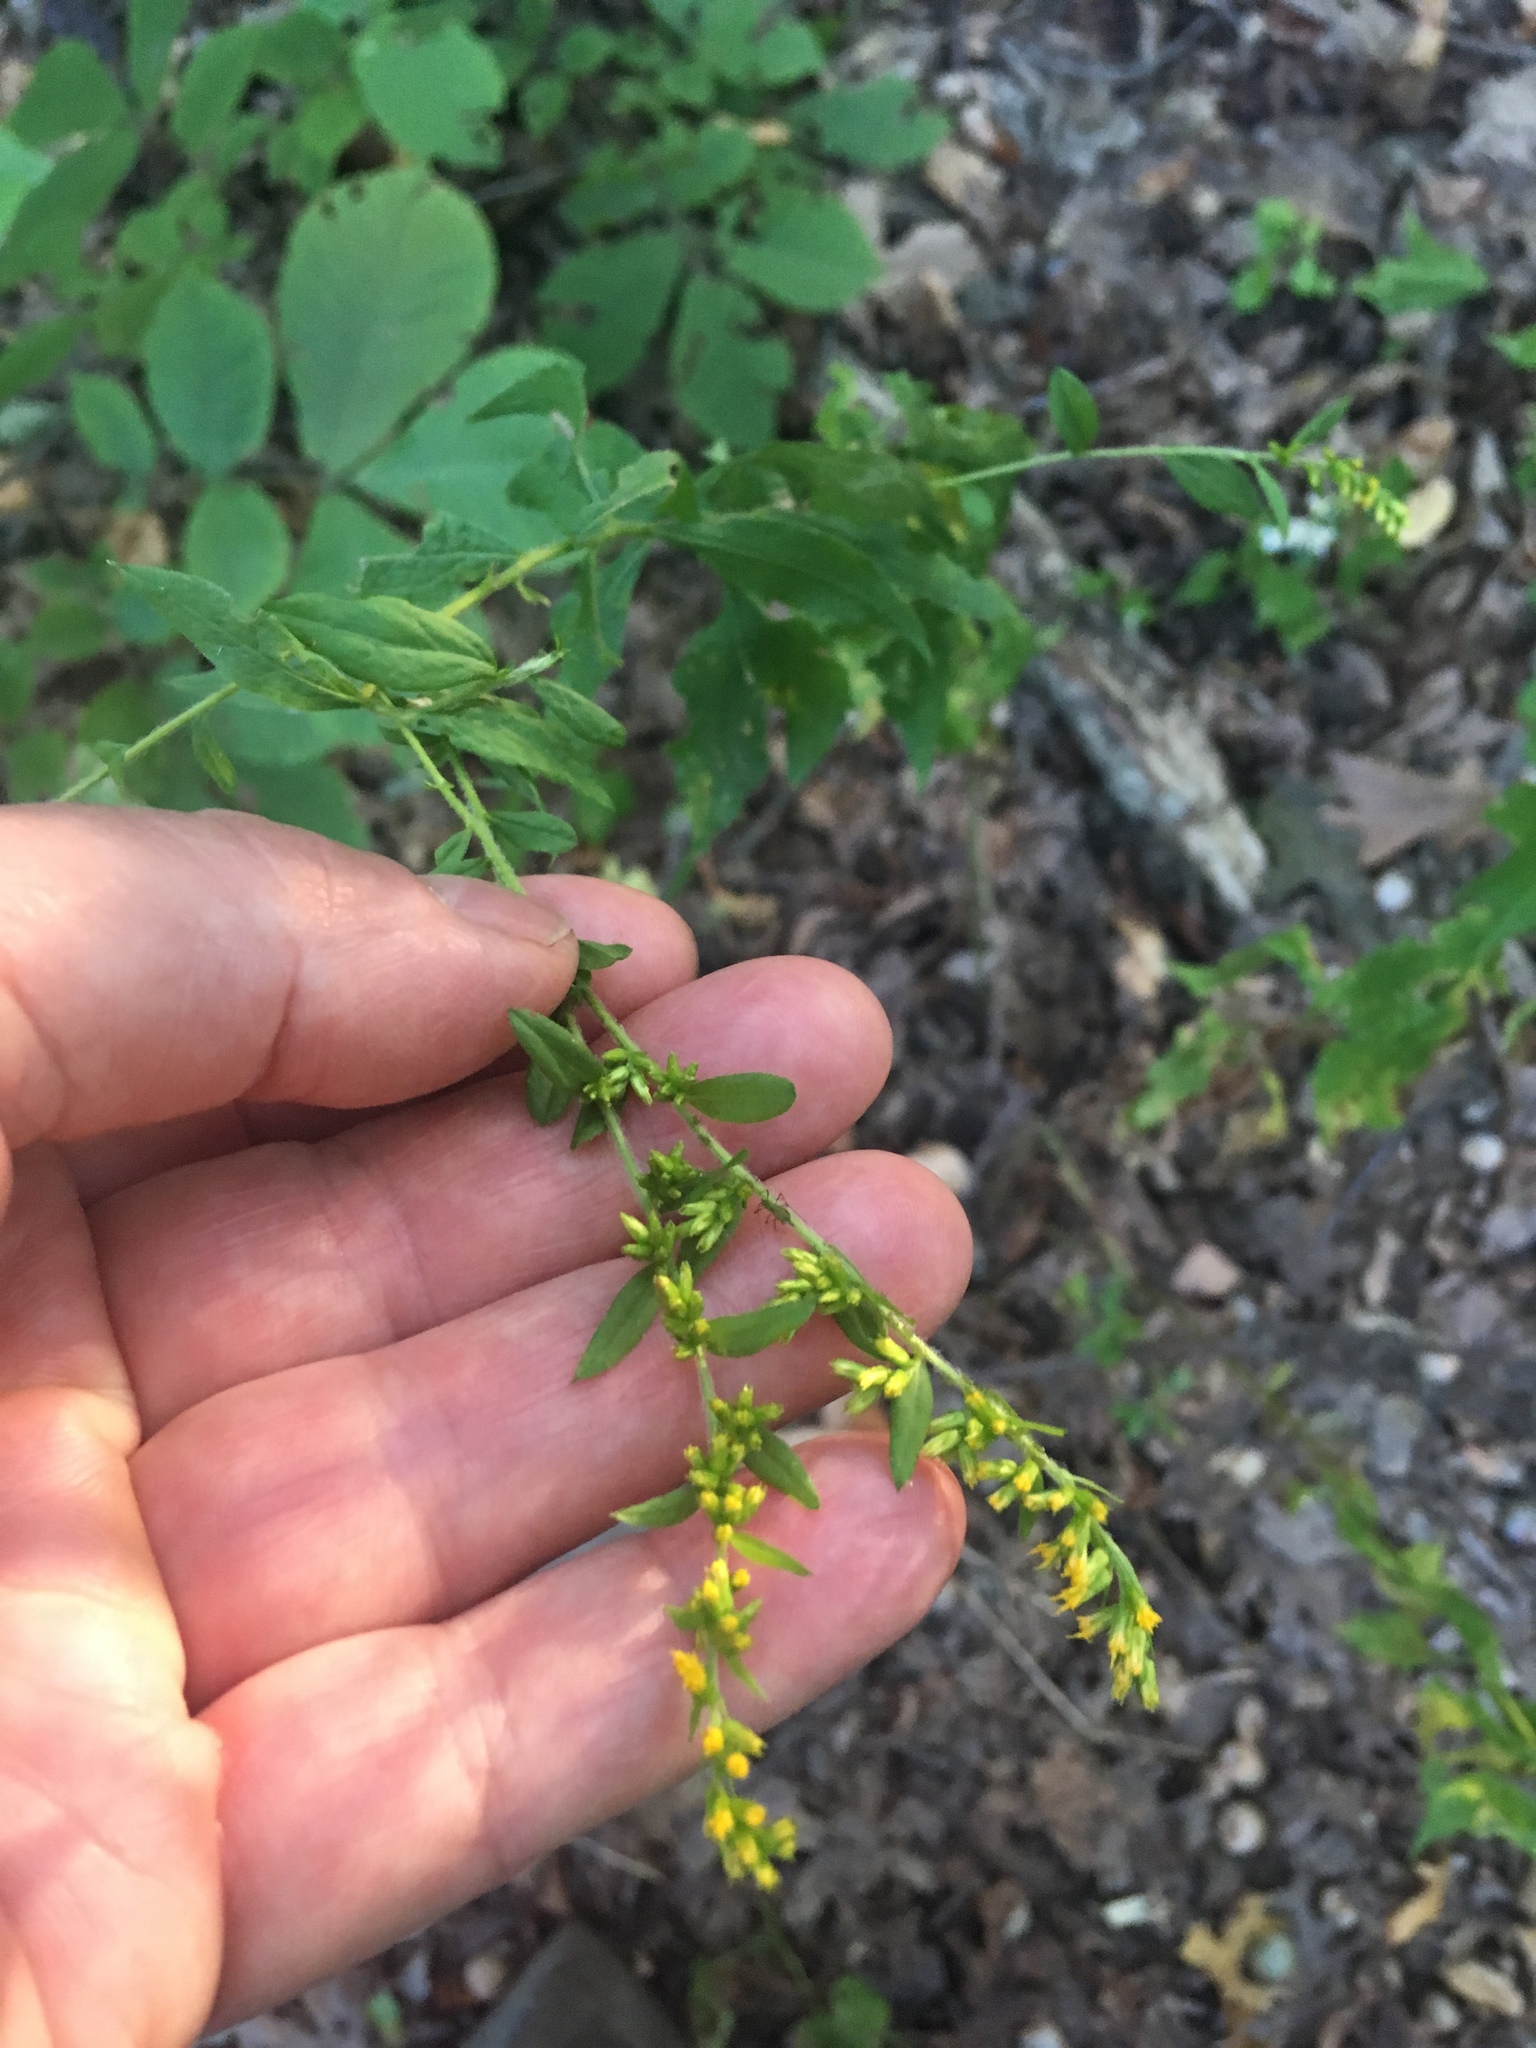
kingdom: Plantae
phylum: Tracheophyta
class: Magnoliopsida
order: Asterales
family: Asteraceae
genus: Solidago
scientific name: Solidago rugosa
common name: Rough-stemmed goldenrod
